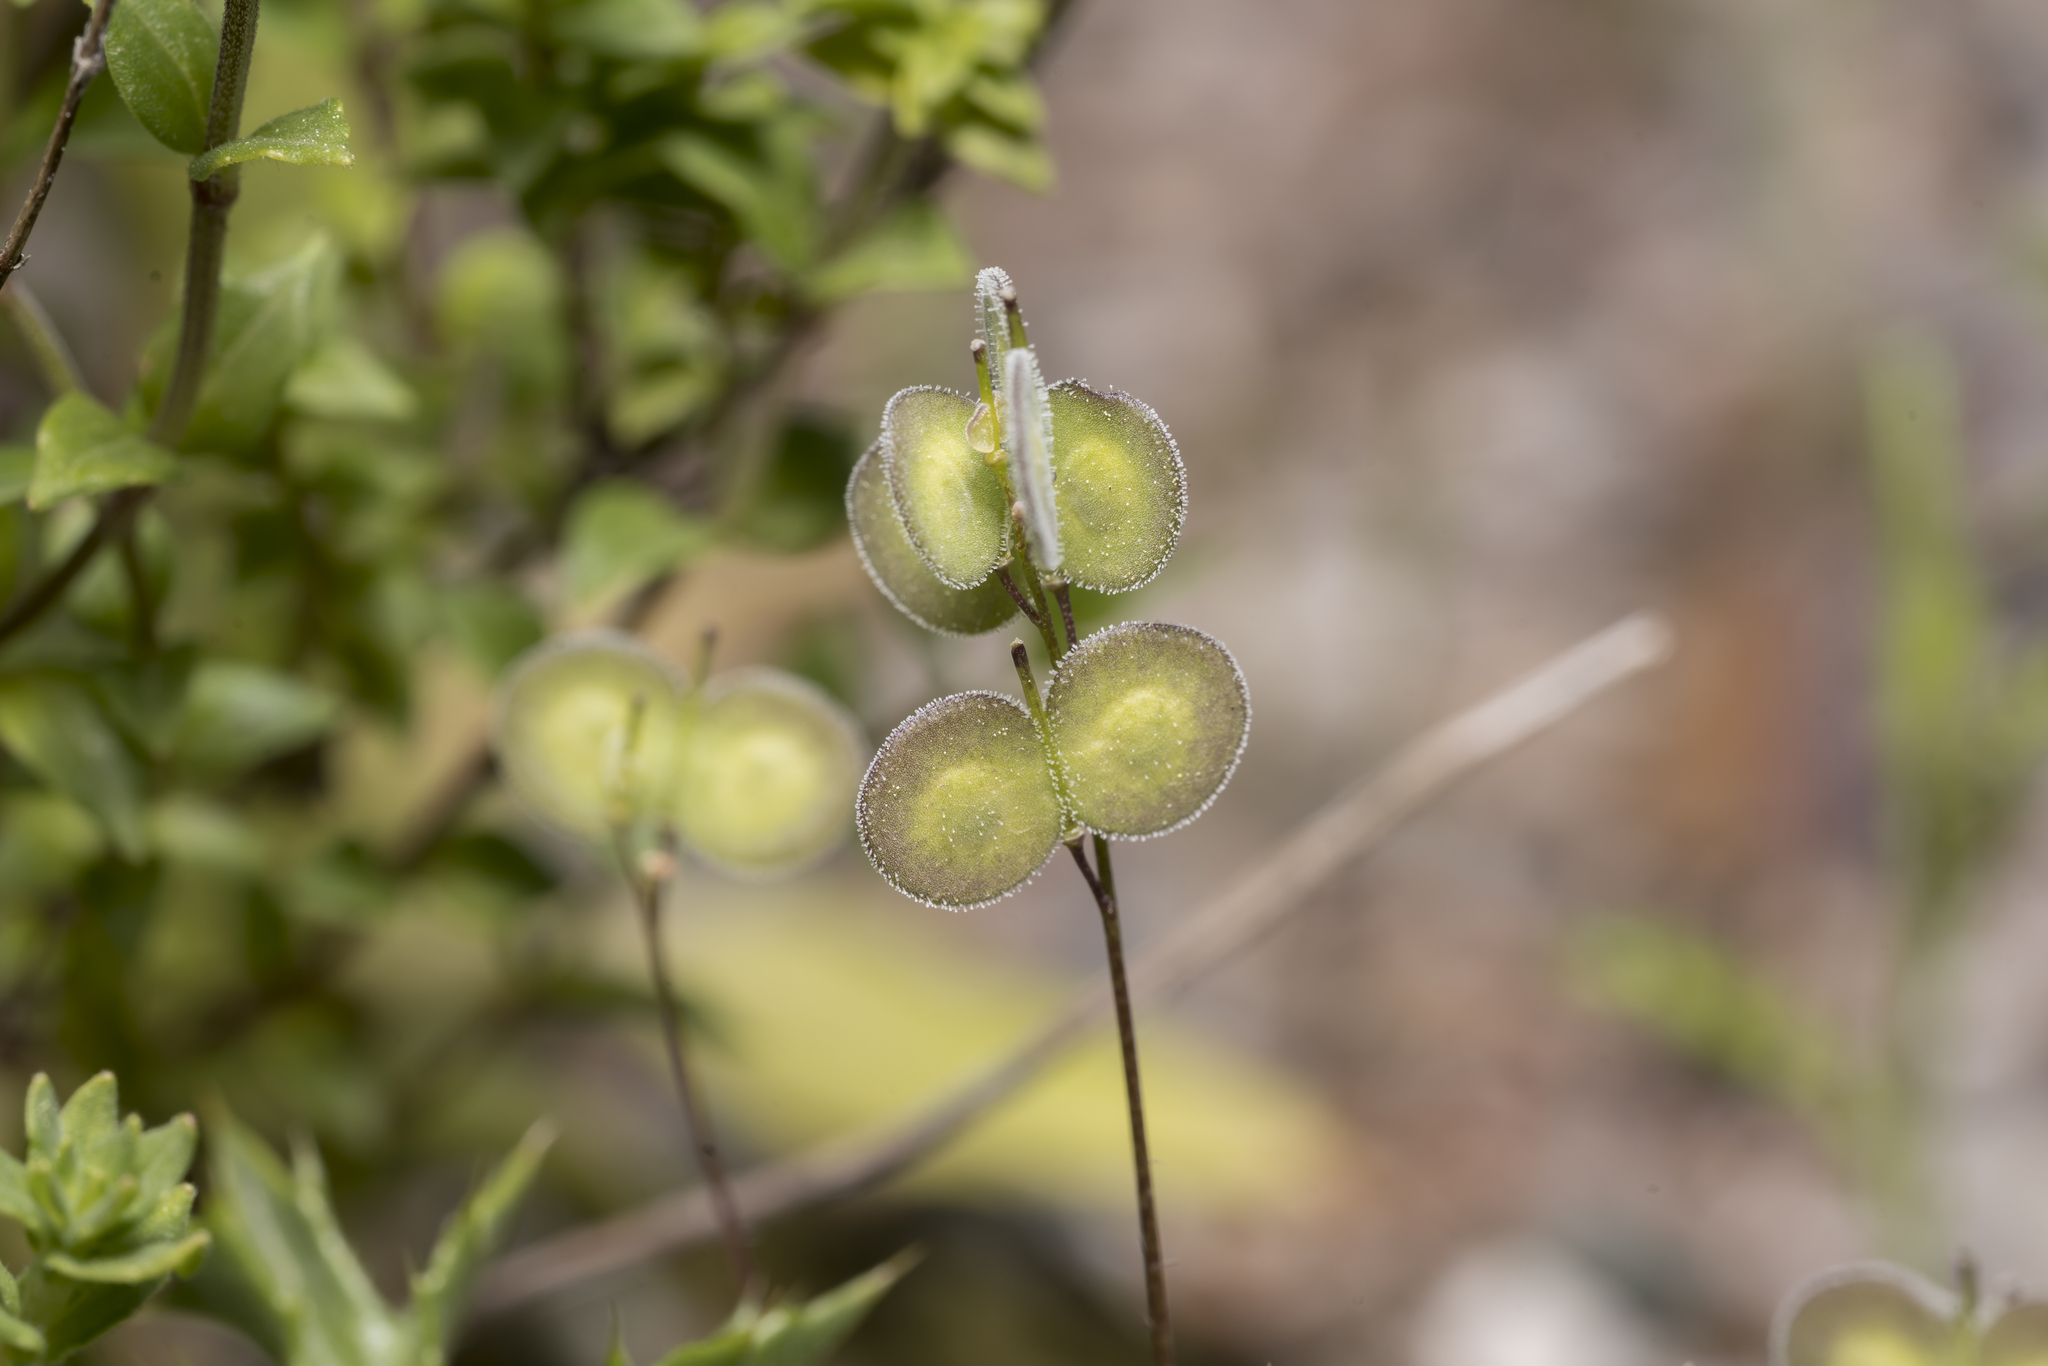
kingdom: Plantae
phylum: Tracheophyta
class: Magnoliopsida
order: Brassicales
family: Brassicaceae
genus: Biscutella
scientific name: Biscutella didyma
